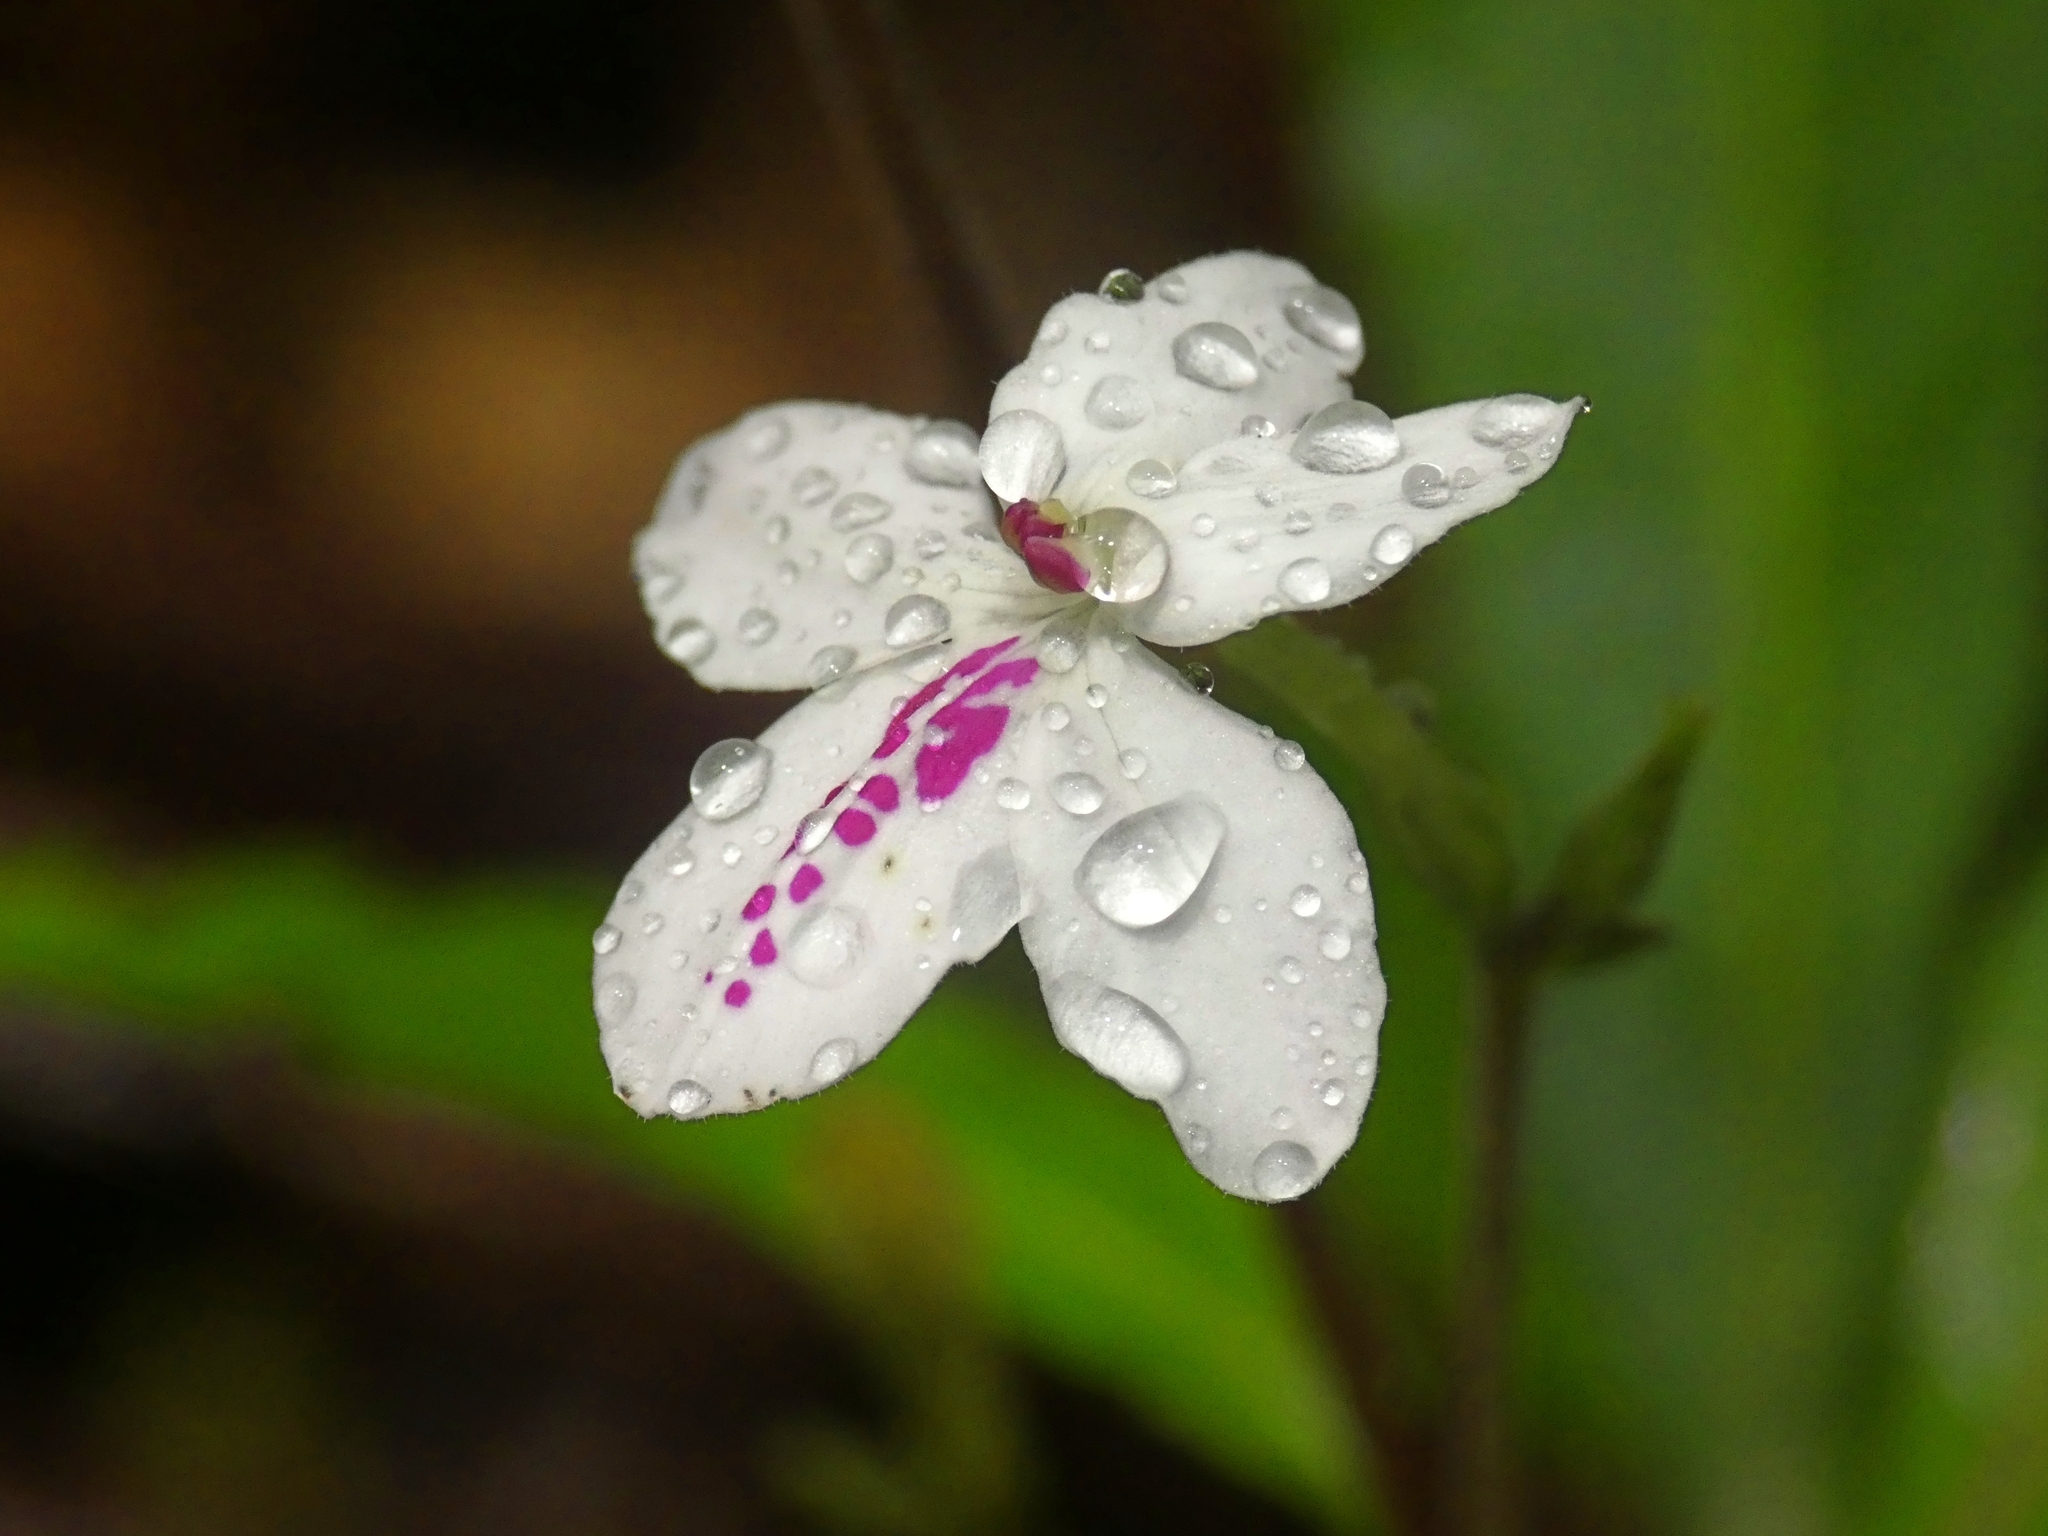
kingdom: Plantae
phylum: Tracheophyta
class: Magnoliopsida
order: Lamiales
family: Acanthaceae
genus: Pseuderanthemum
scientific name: Pseuderanthemum variabile
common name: Night and afternoon
